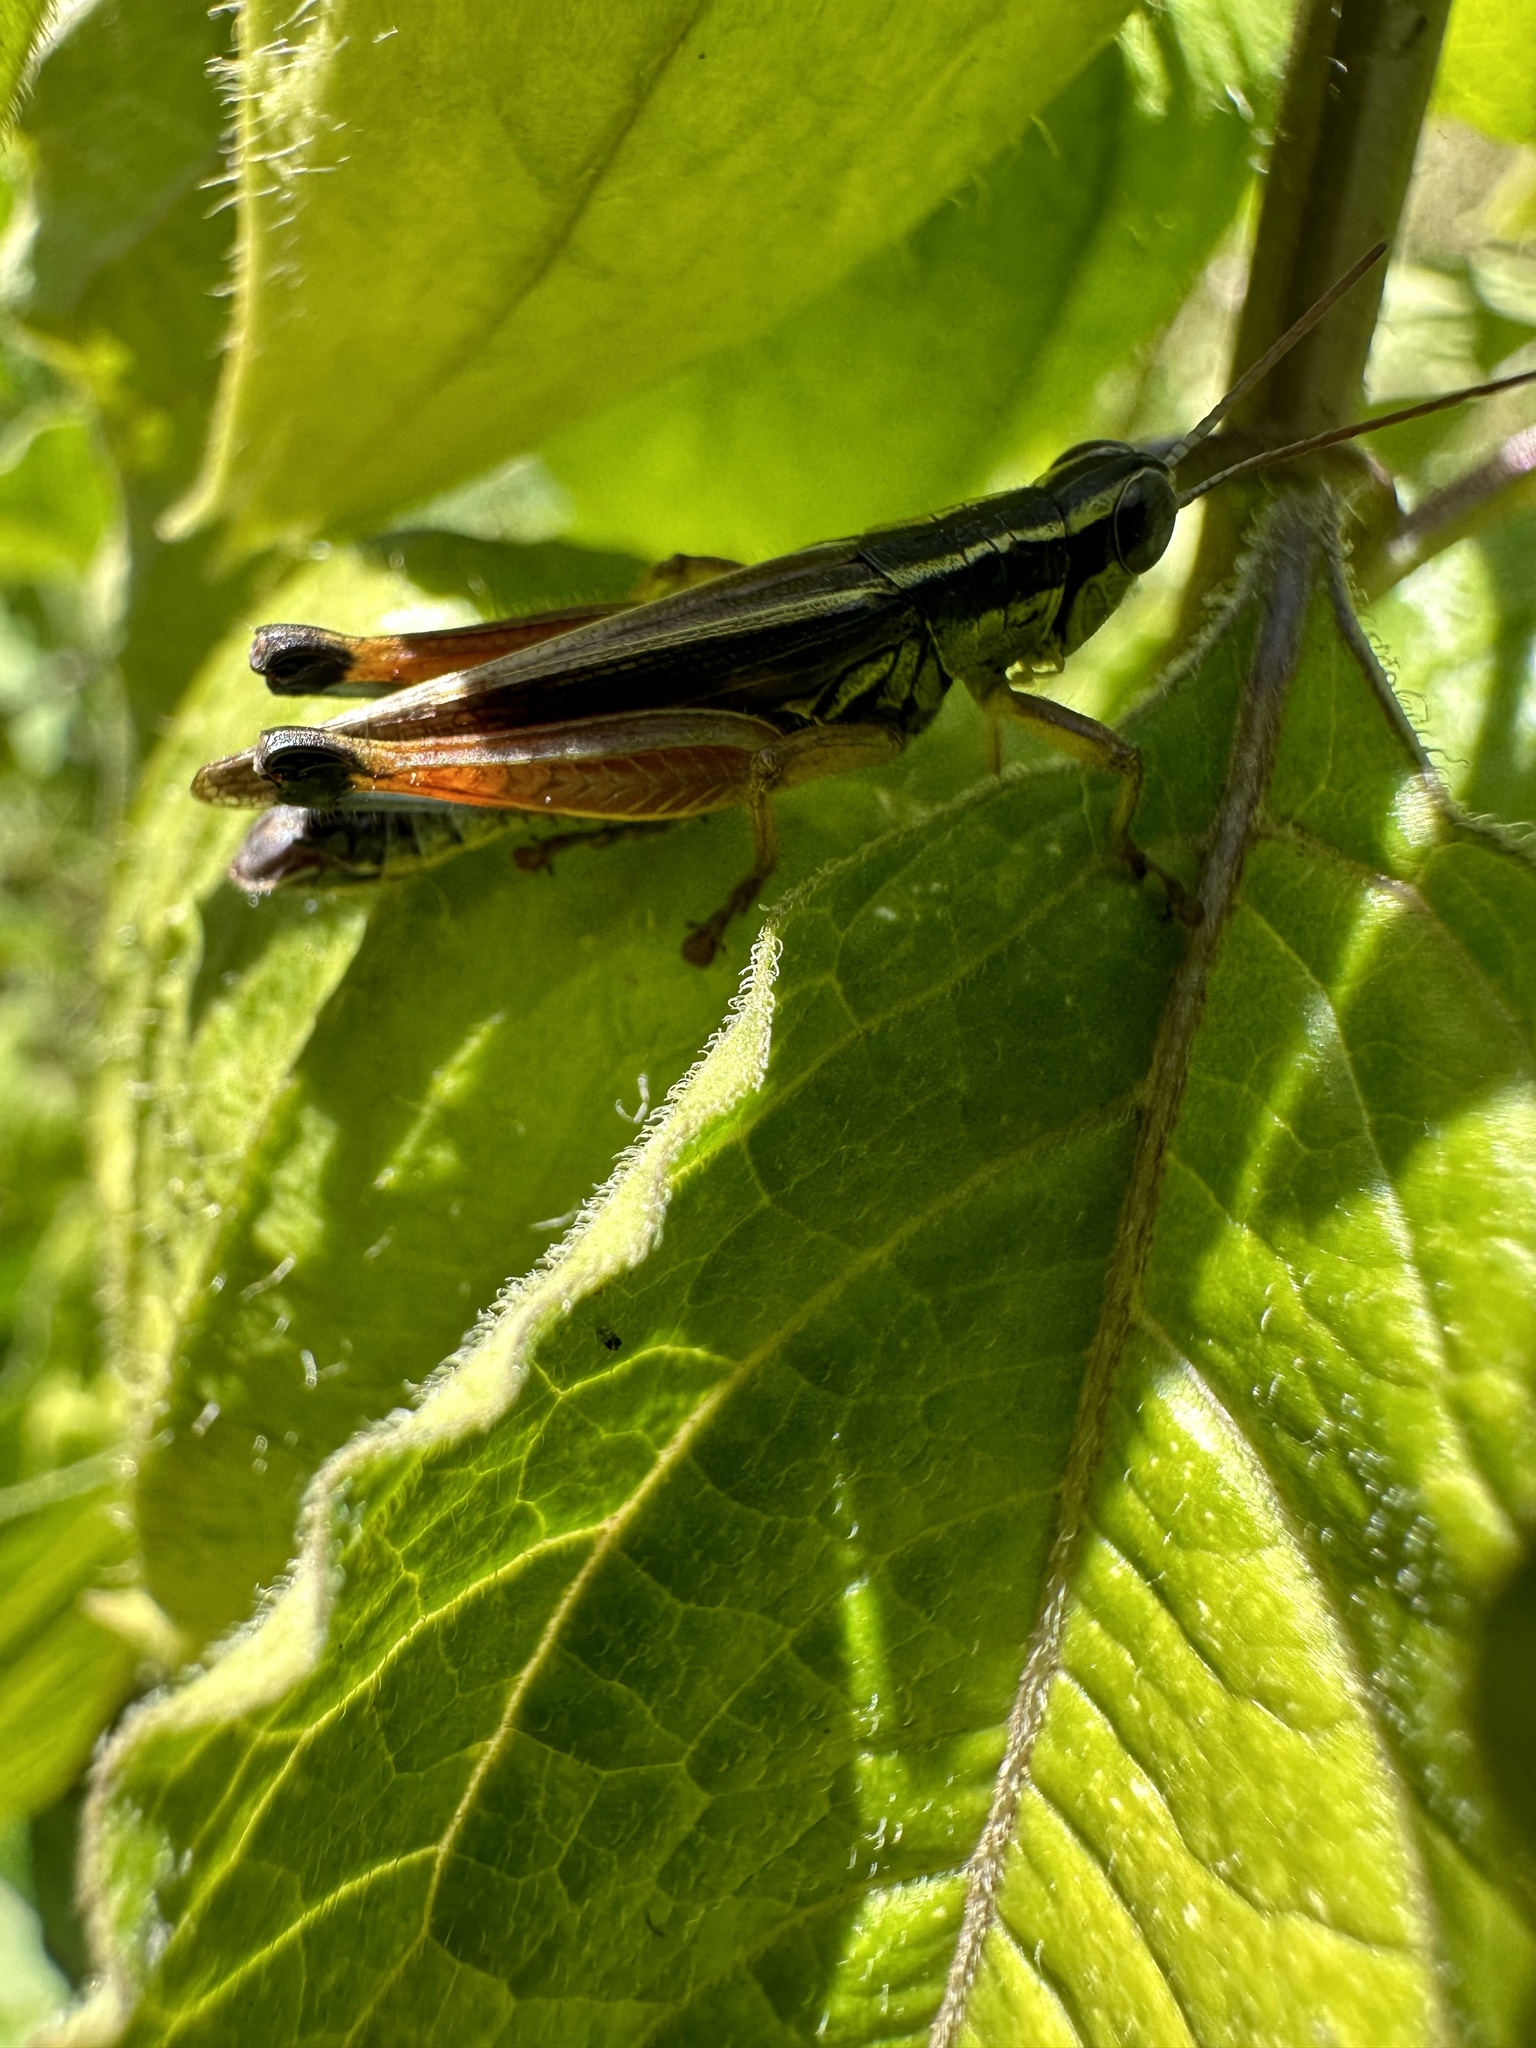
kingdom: Animalia
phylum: Arthropoda
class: Insecta
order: Orthoptera
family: Acrididae
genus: Dichroplus
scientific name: Dichroplus vittiger
